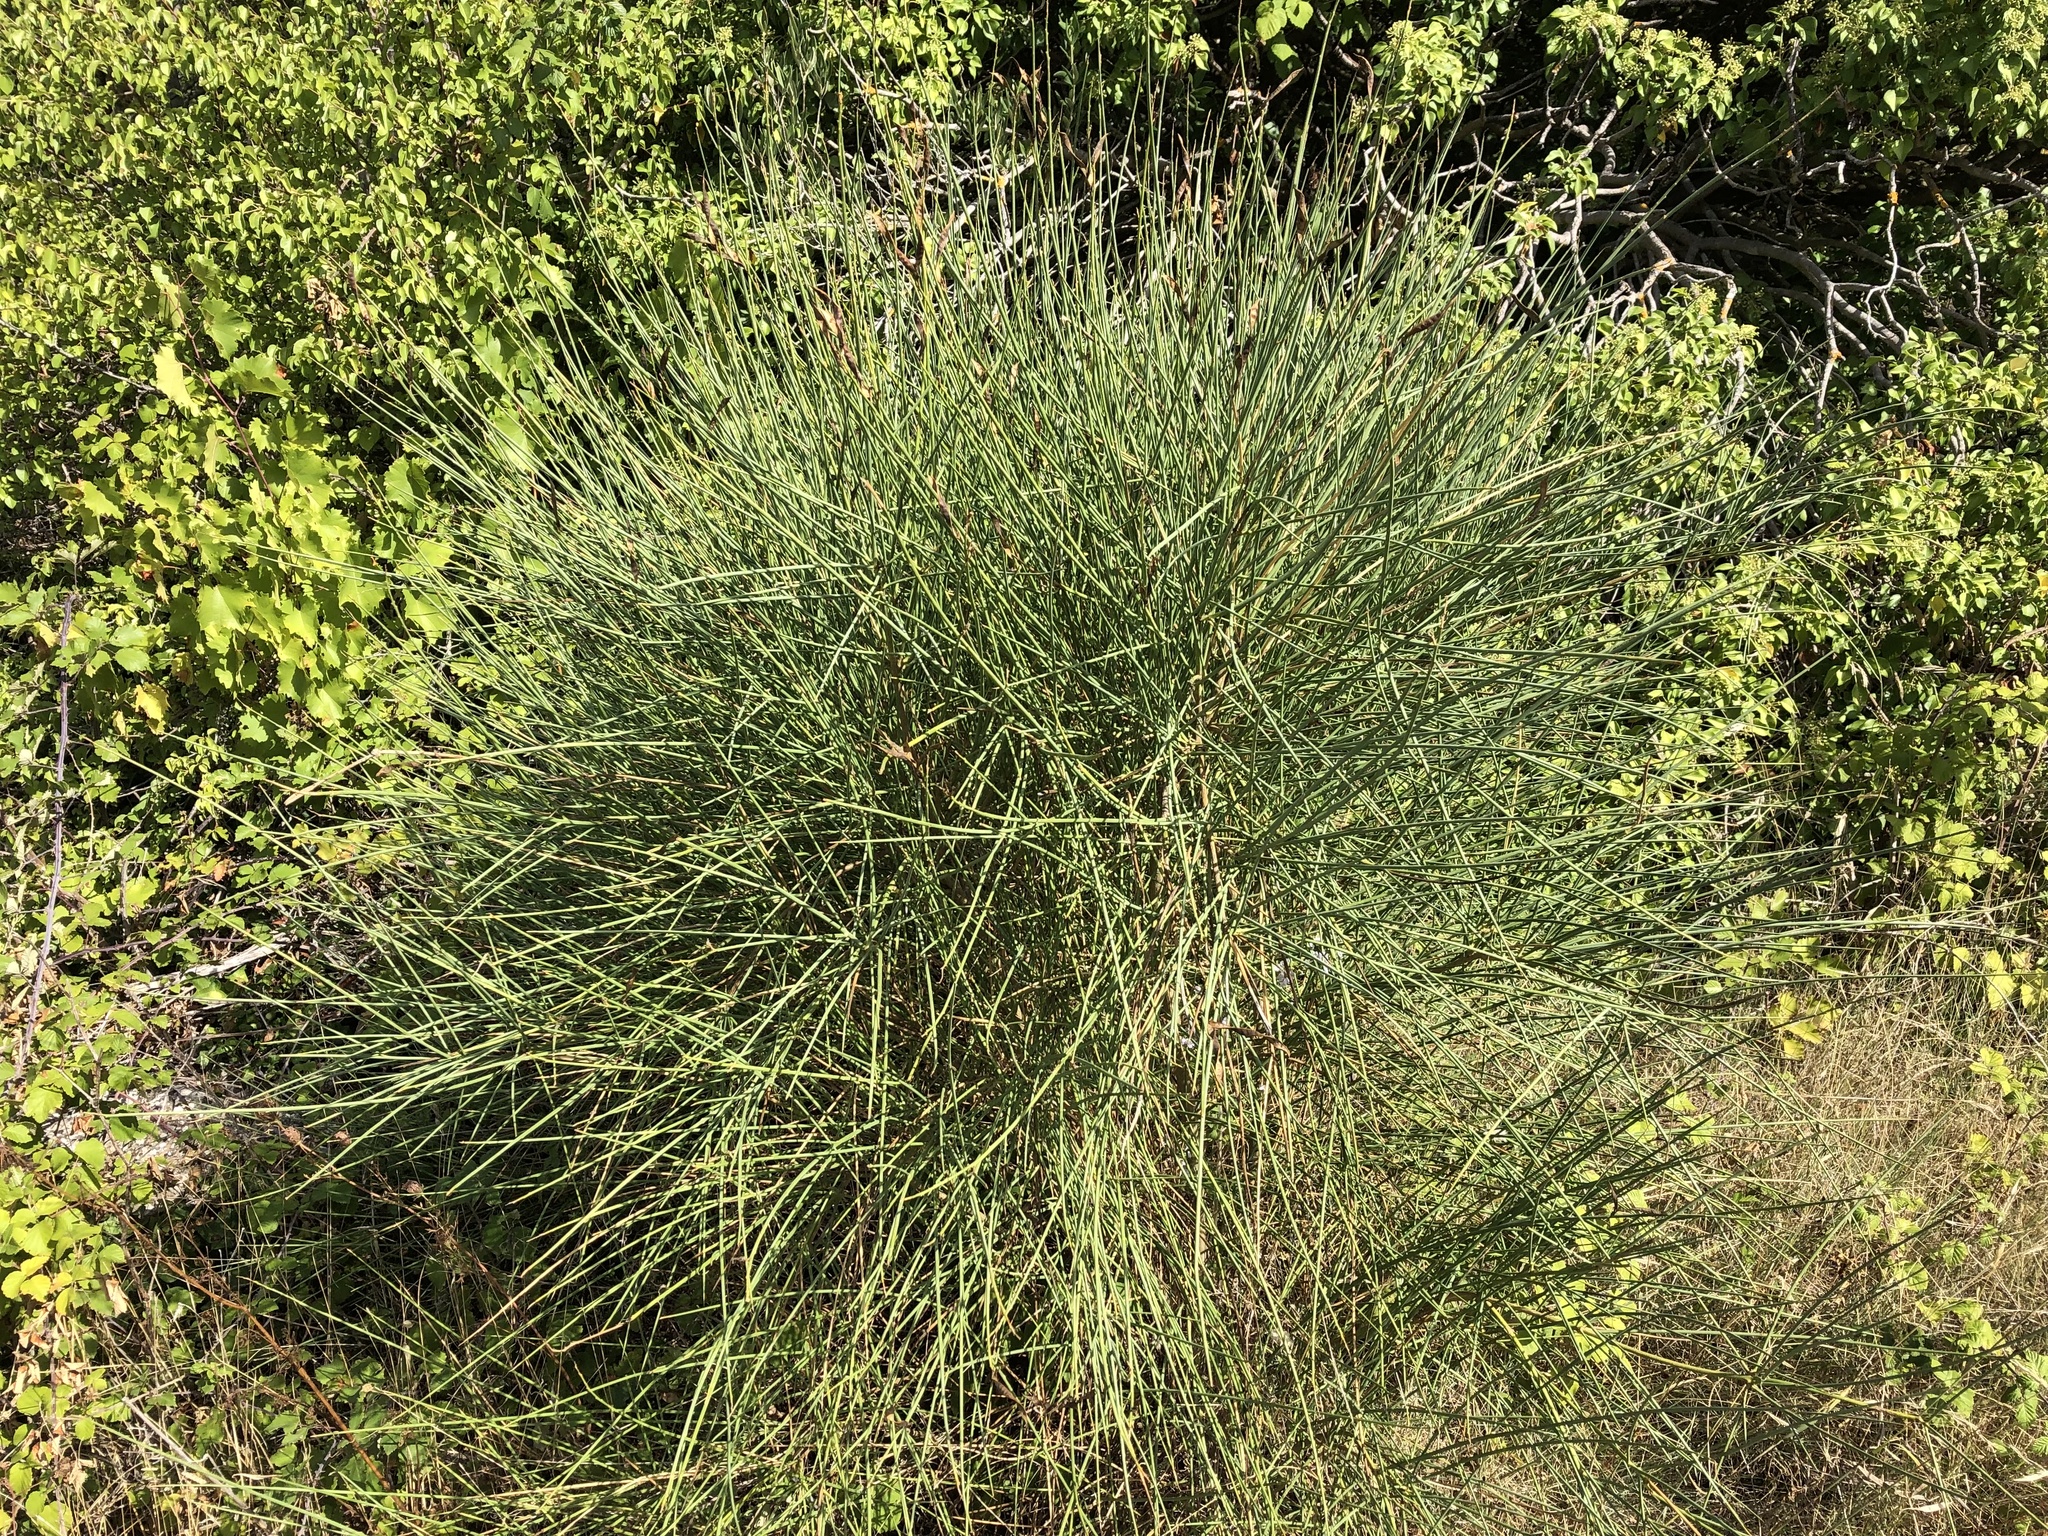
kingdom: Plantae
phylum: Tracheophyta
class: Magnoliopsida
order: Fabales
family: Fabaceae
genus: Spartium
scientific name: Spartium junceum
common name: Spanish broom
